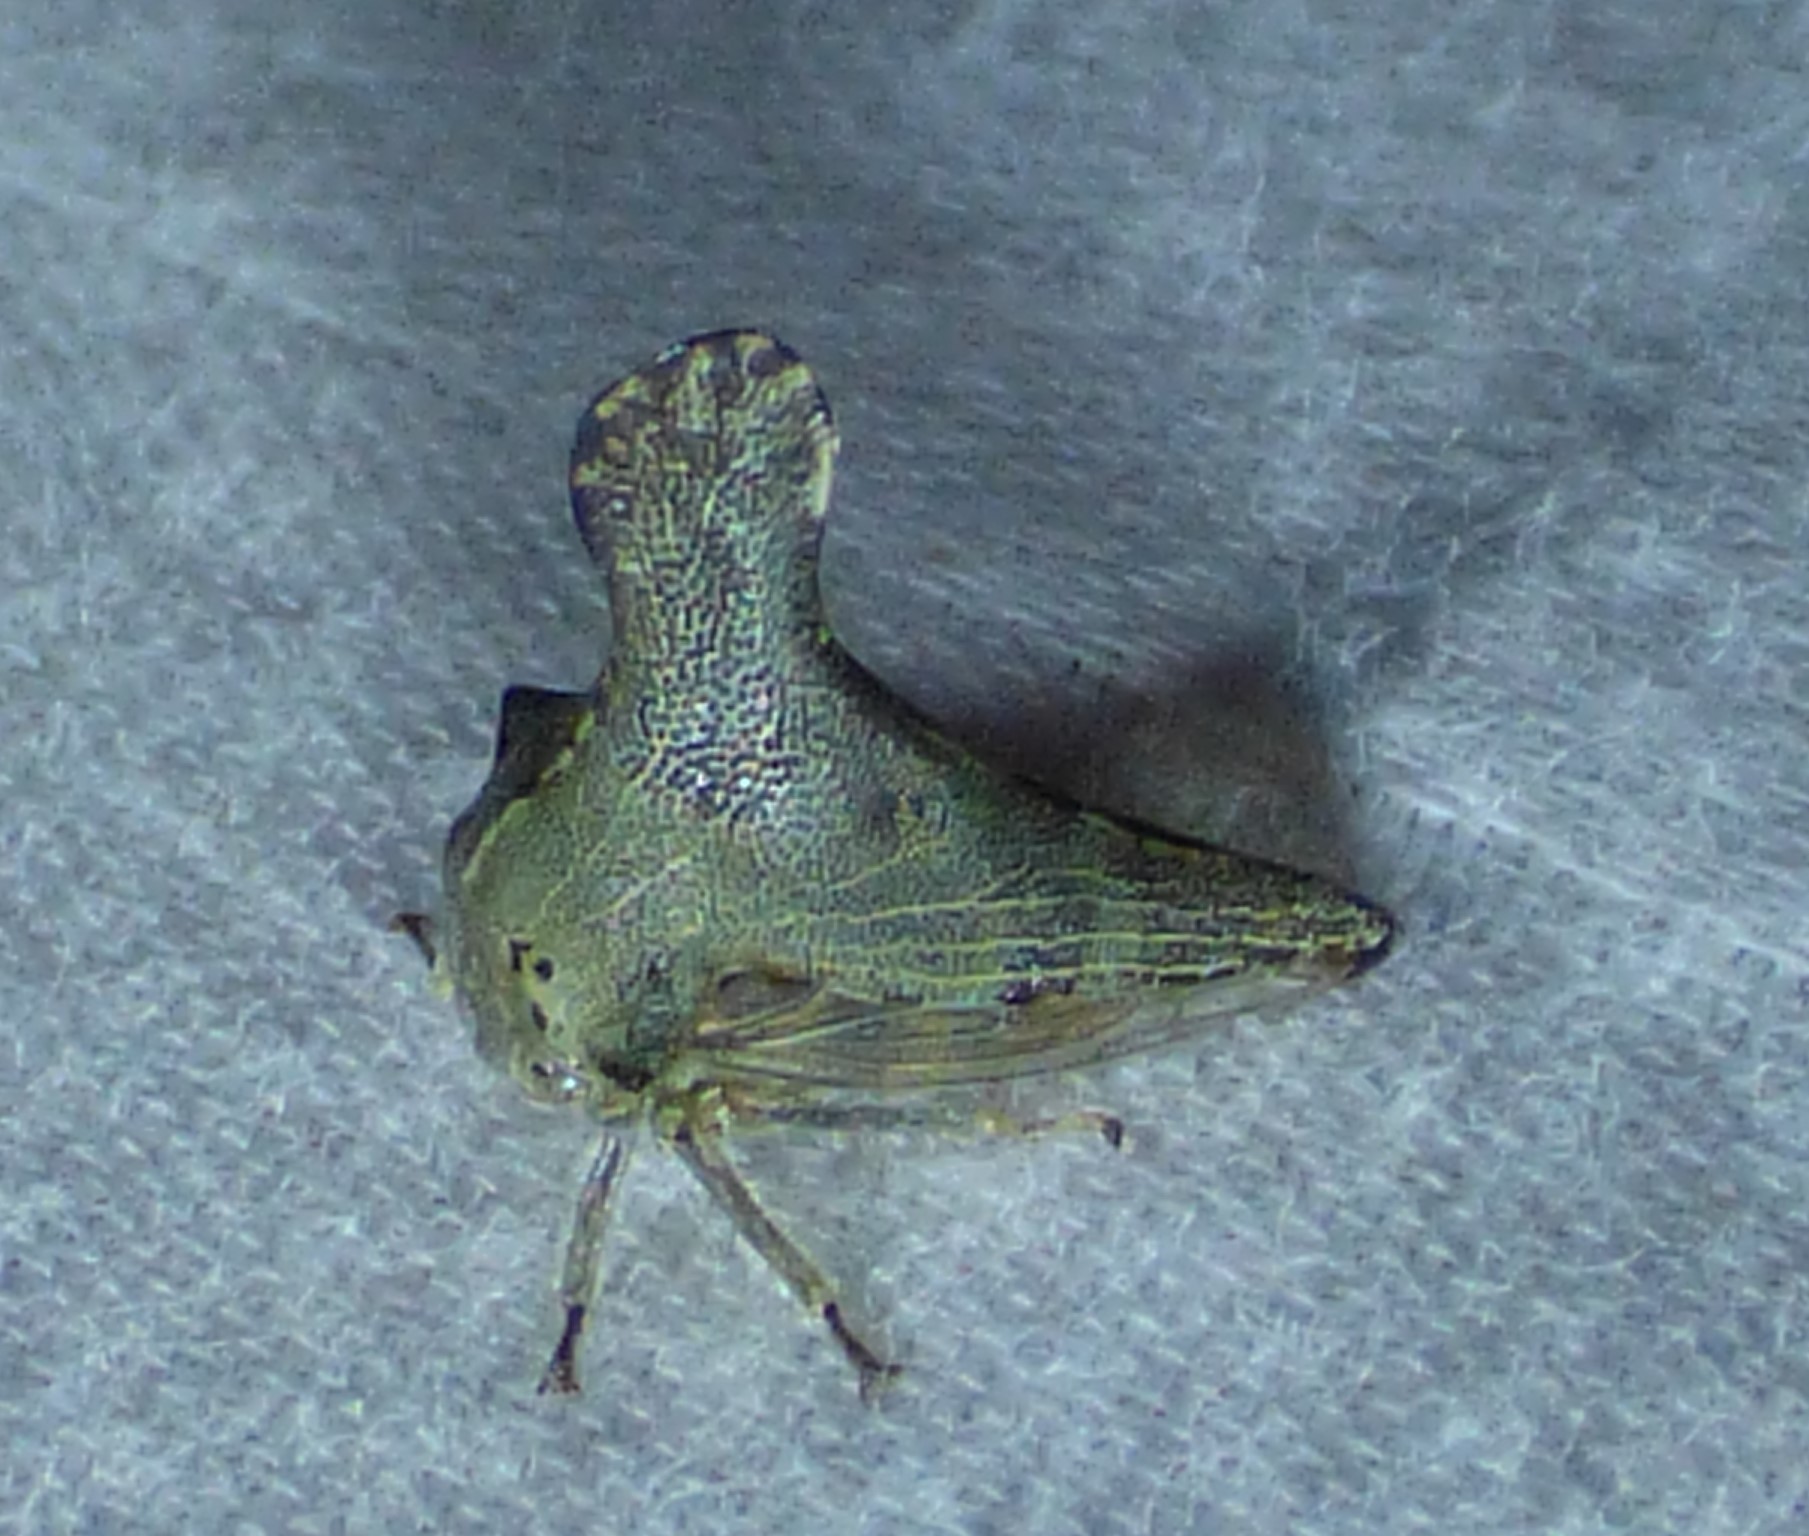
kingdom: Animalia
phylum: Arthropoda
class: Insecta
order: Hemiptera
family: Membracidae
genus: Glossonotus
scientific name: Glossonotus acuminata
